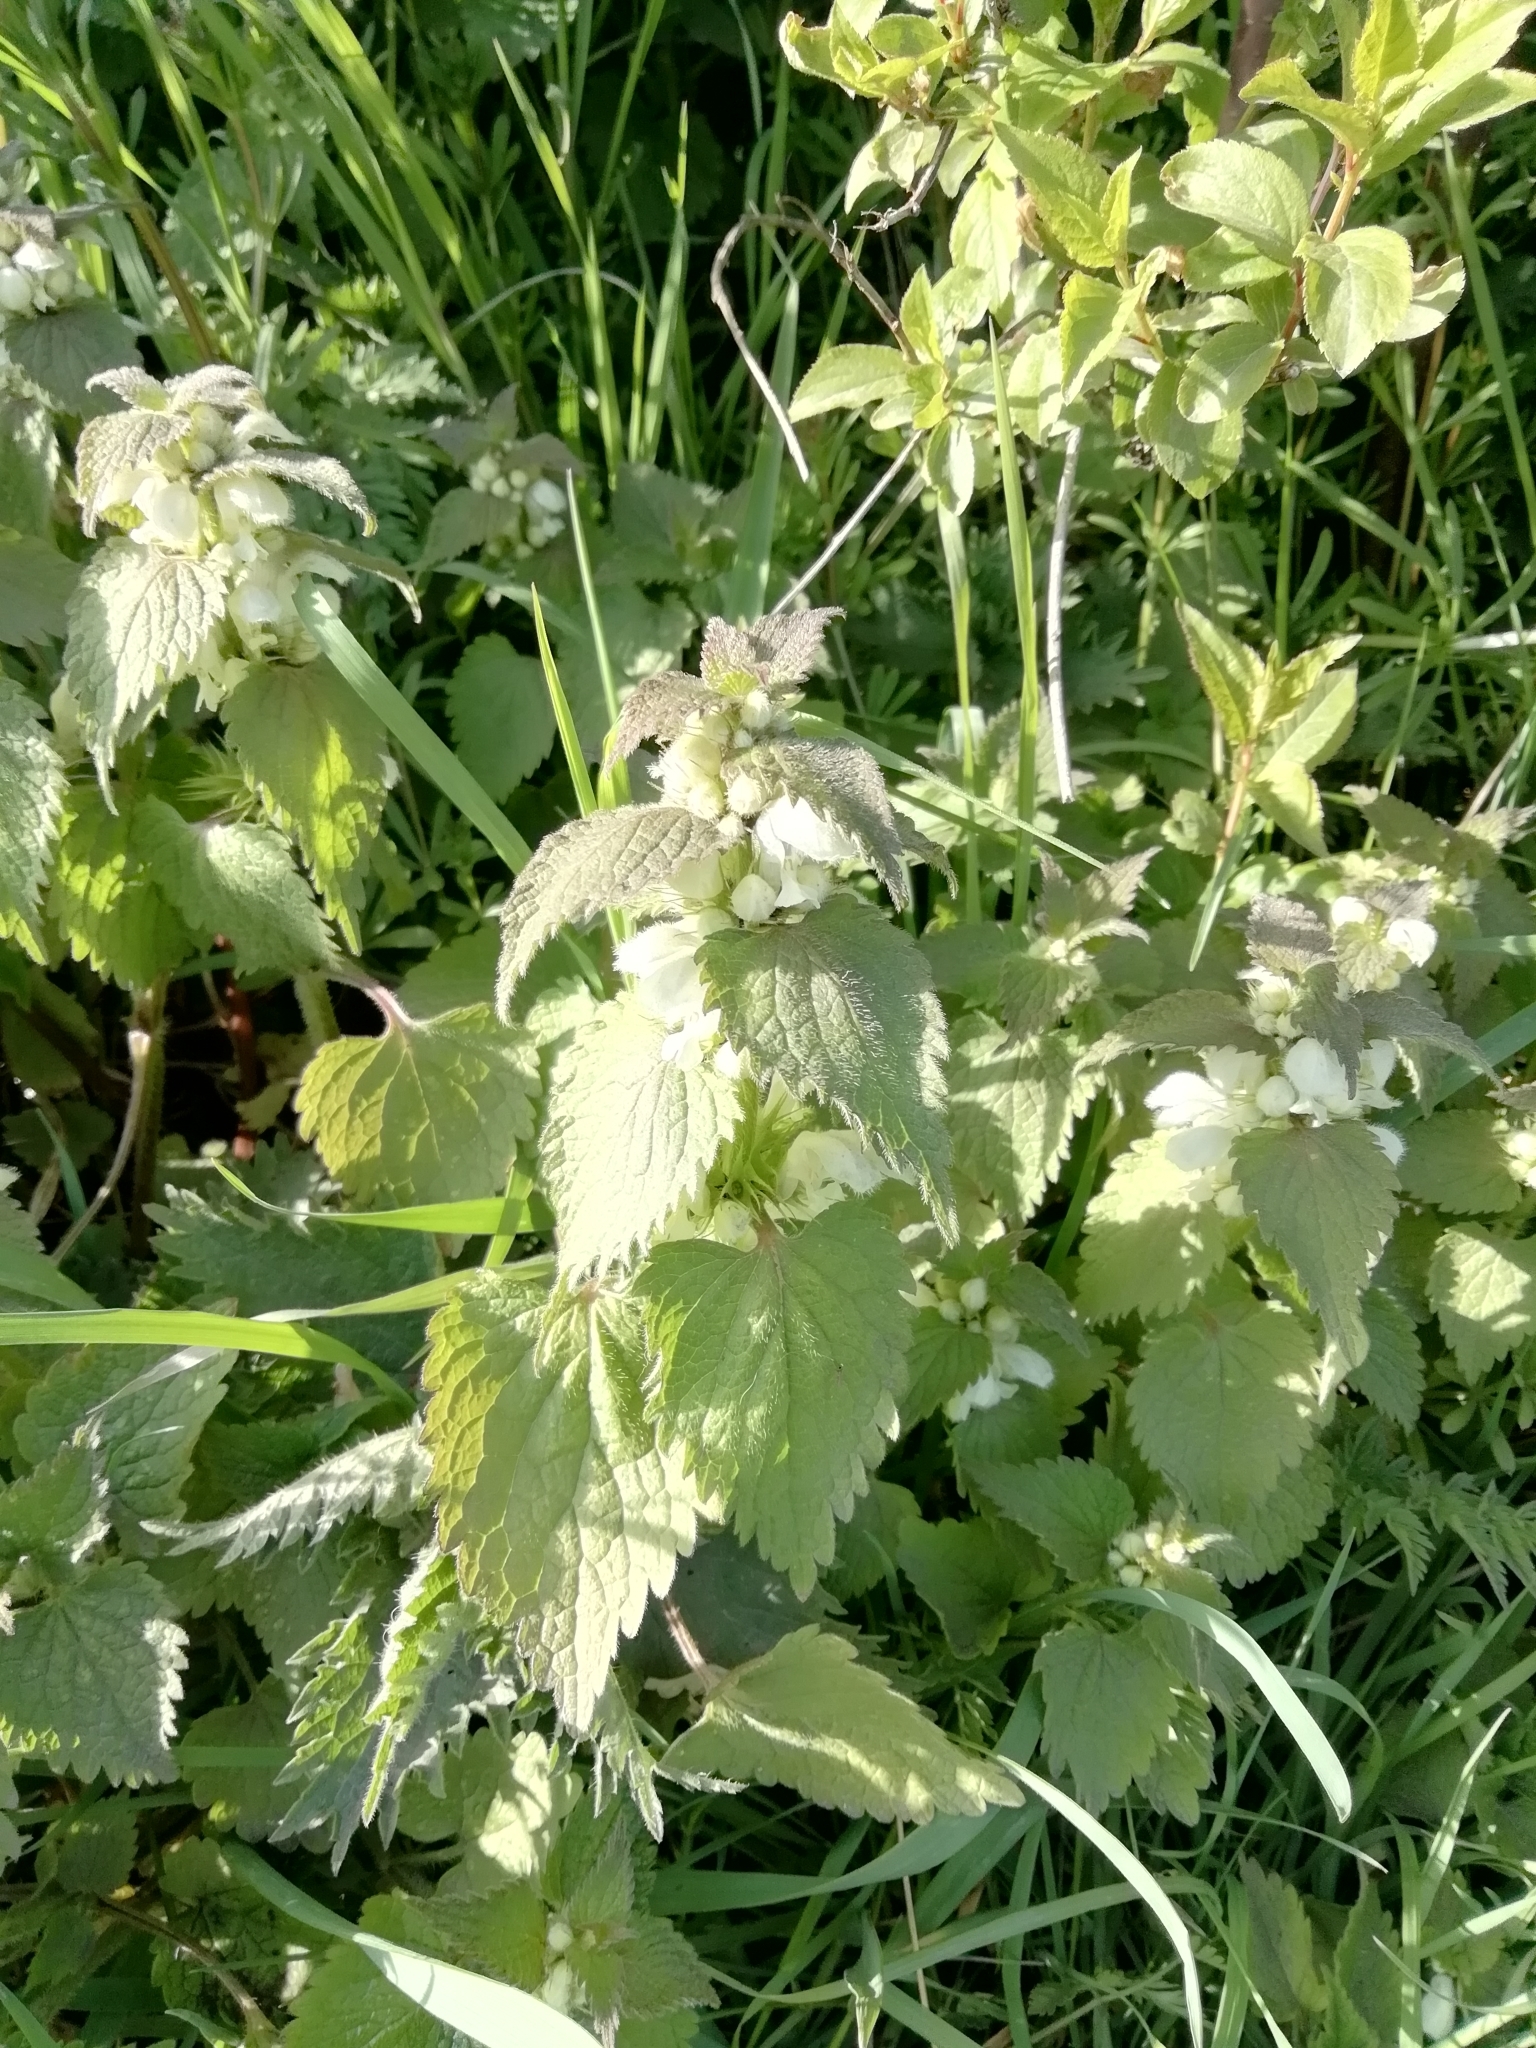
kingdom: Plantae
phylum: Tracheophyta
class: Magnoliopsida
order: Lamiales
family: Lamiaceae
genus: Lamium
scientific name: Lamium album
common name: White dead-nettle
